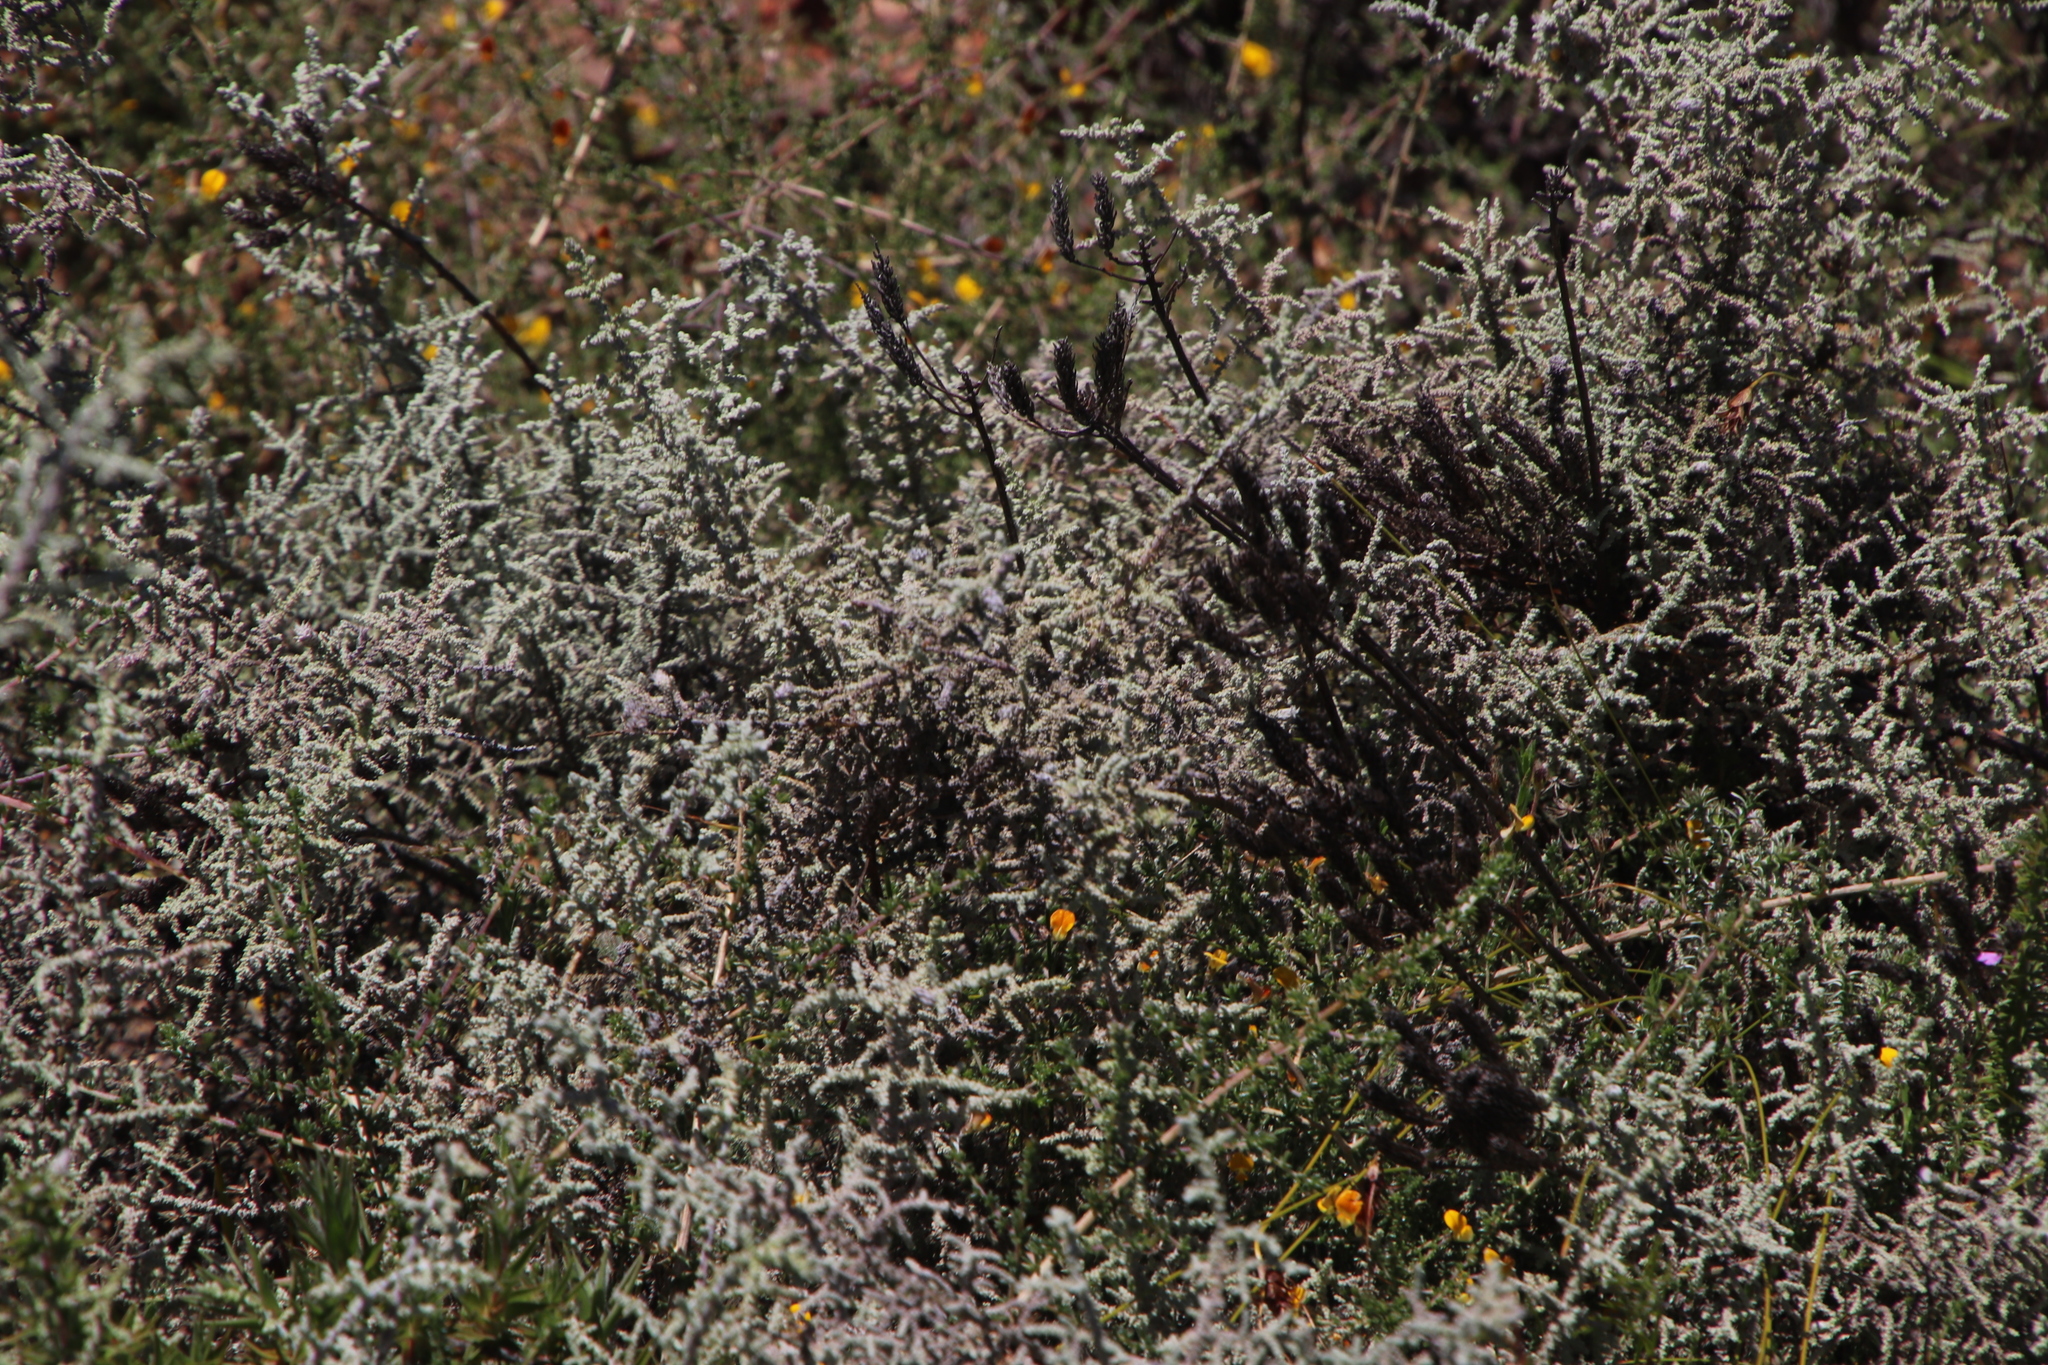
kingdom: Plantae
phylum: Tracheophyta
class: Magnoliopsida
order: Asterales
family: Asteraceae
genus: Seriphium
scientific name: Seriphium plumosum
